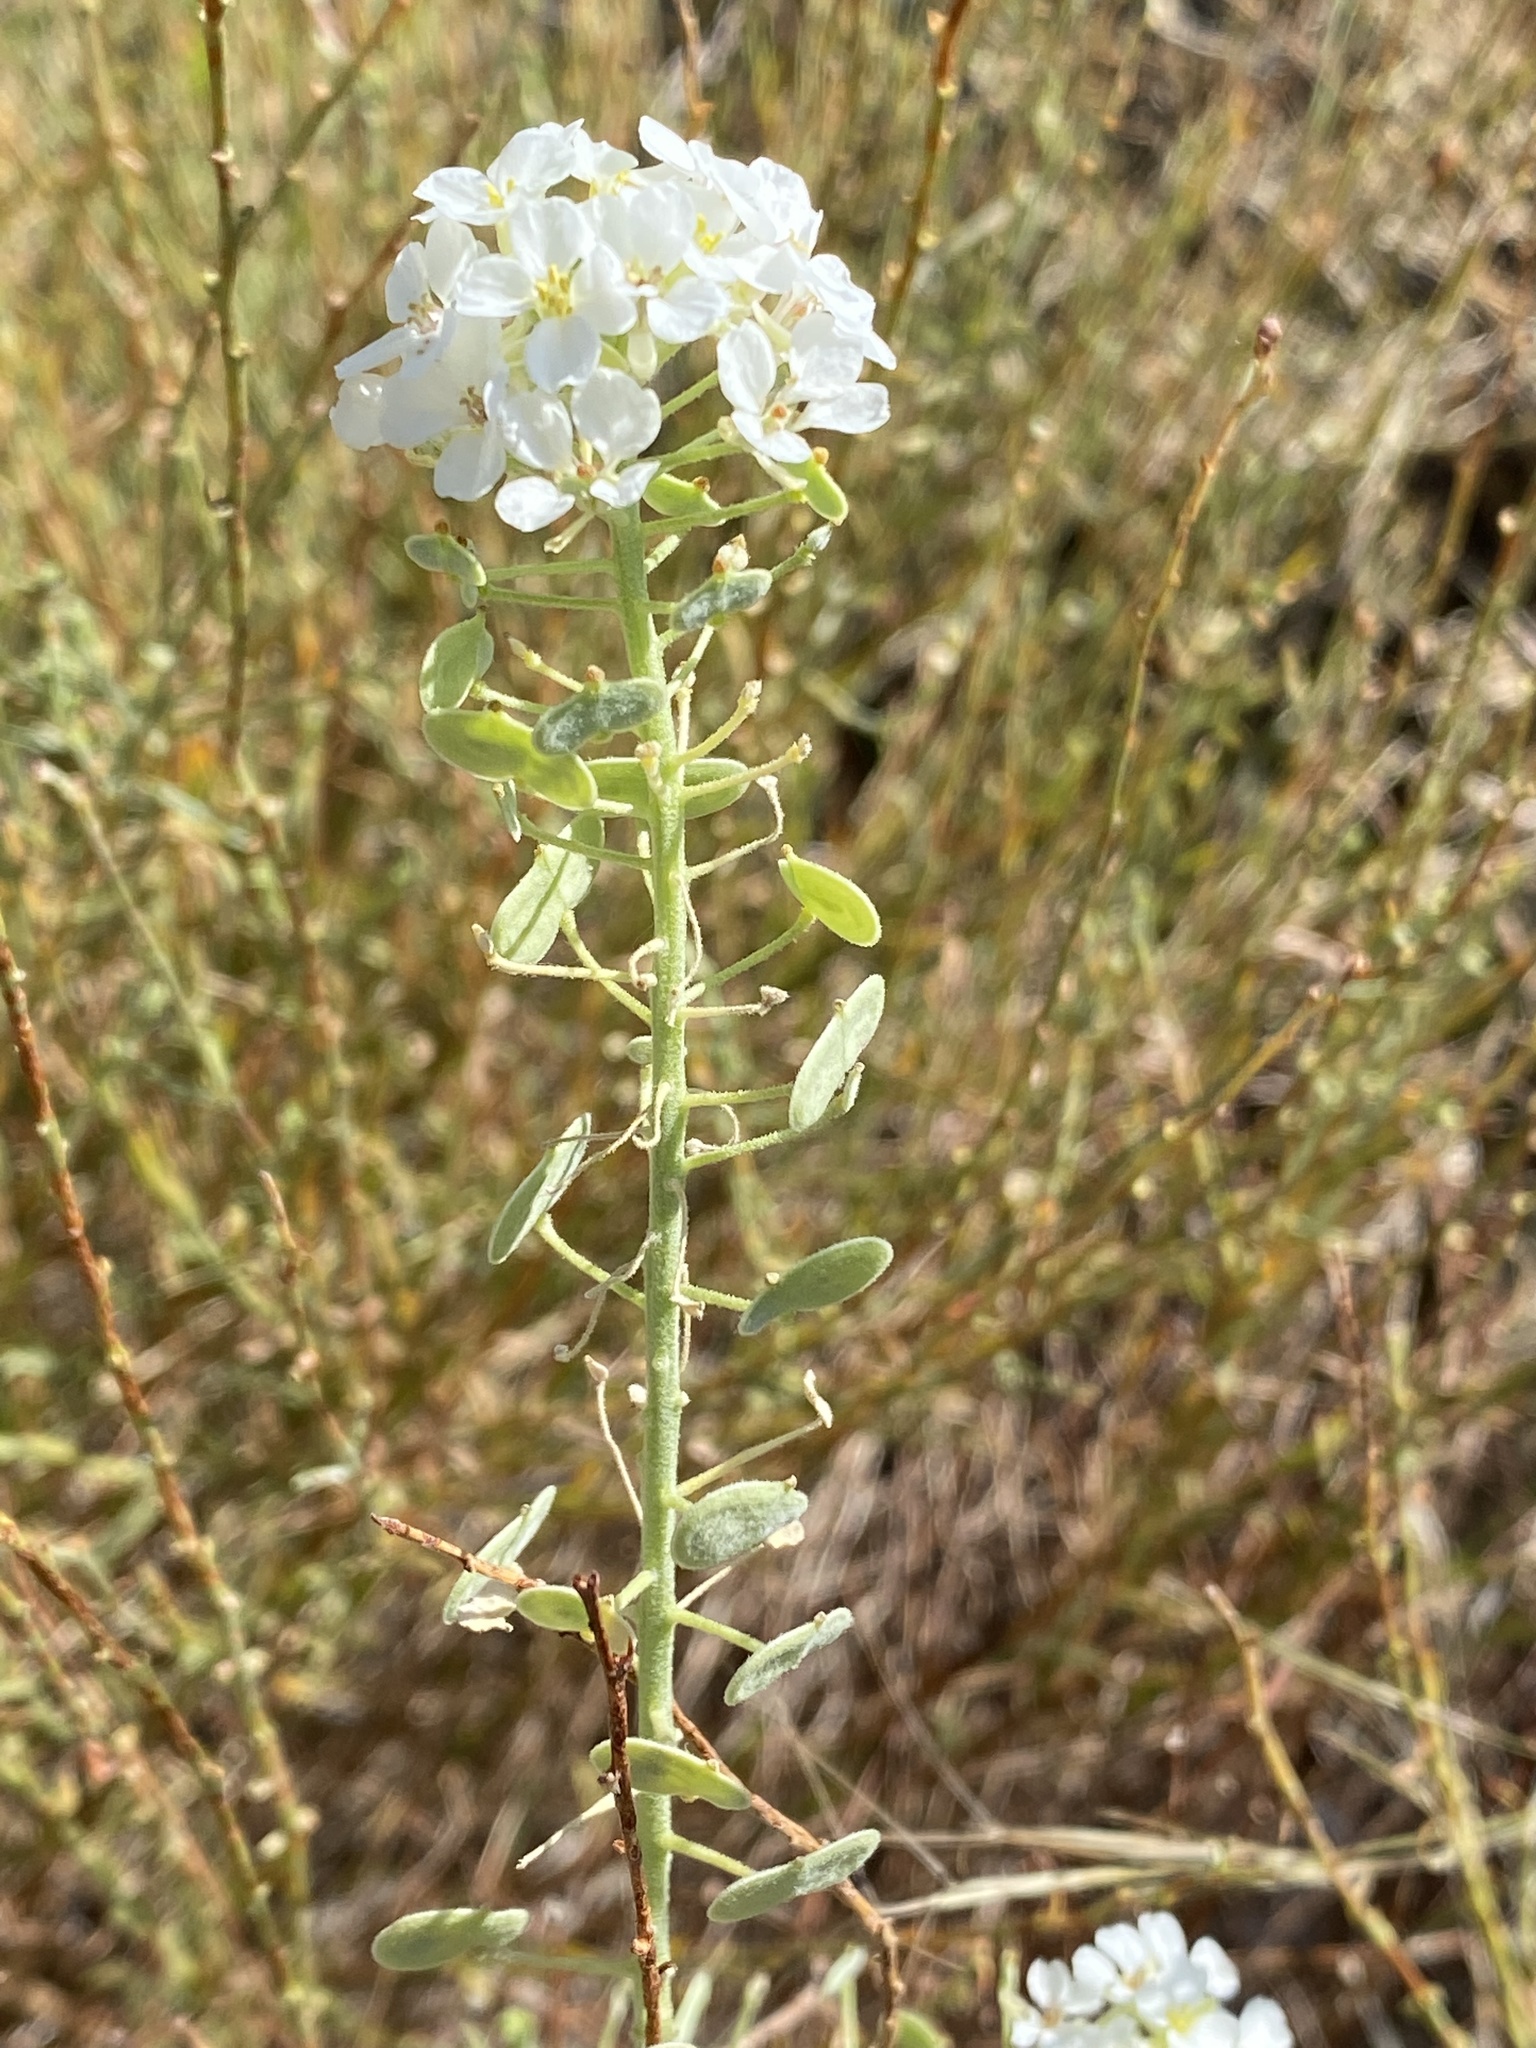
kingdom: Plantae
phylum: Tracheophyta
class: Magnoliopsida
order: Brassicales
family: Brassicaceae
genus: Dimorphocarpa
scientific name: Dimorphocarpa wislizenii
